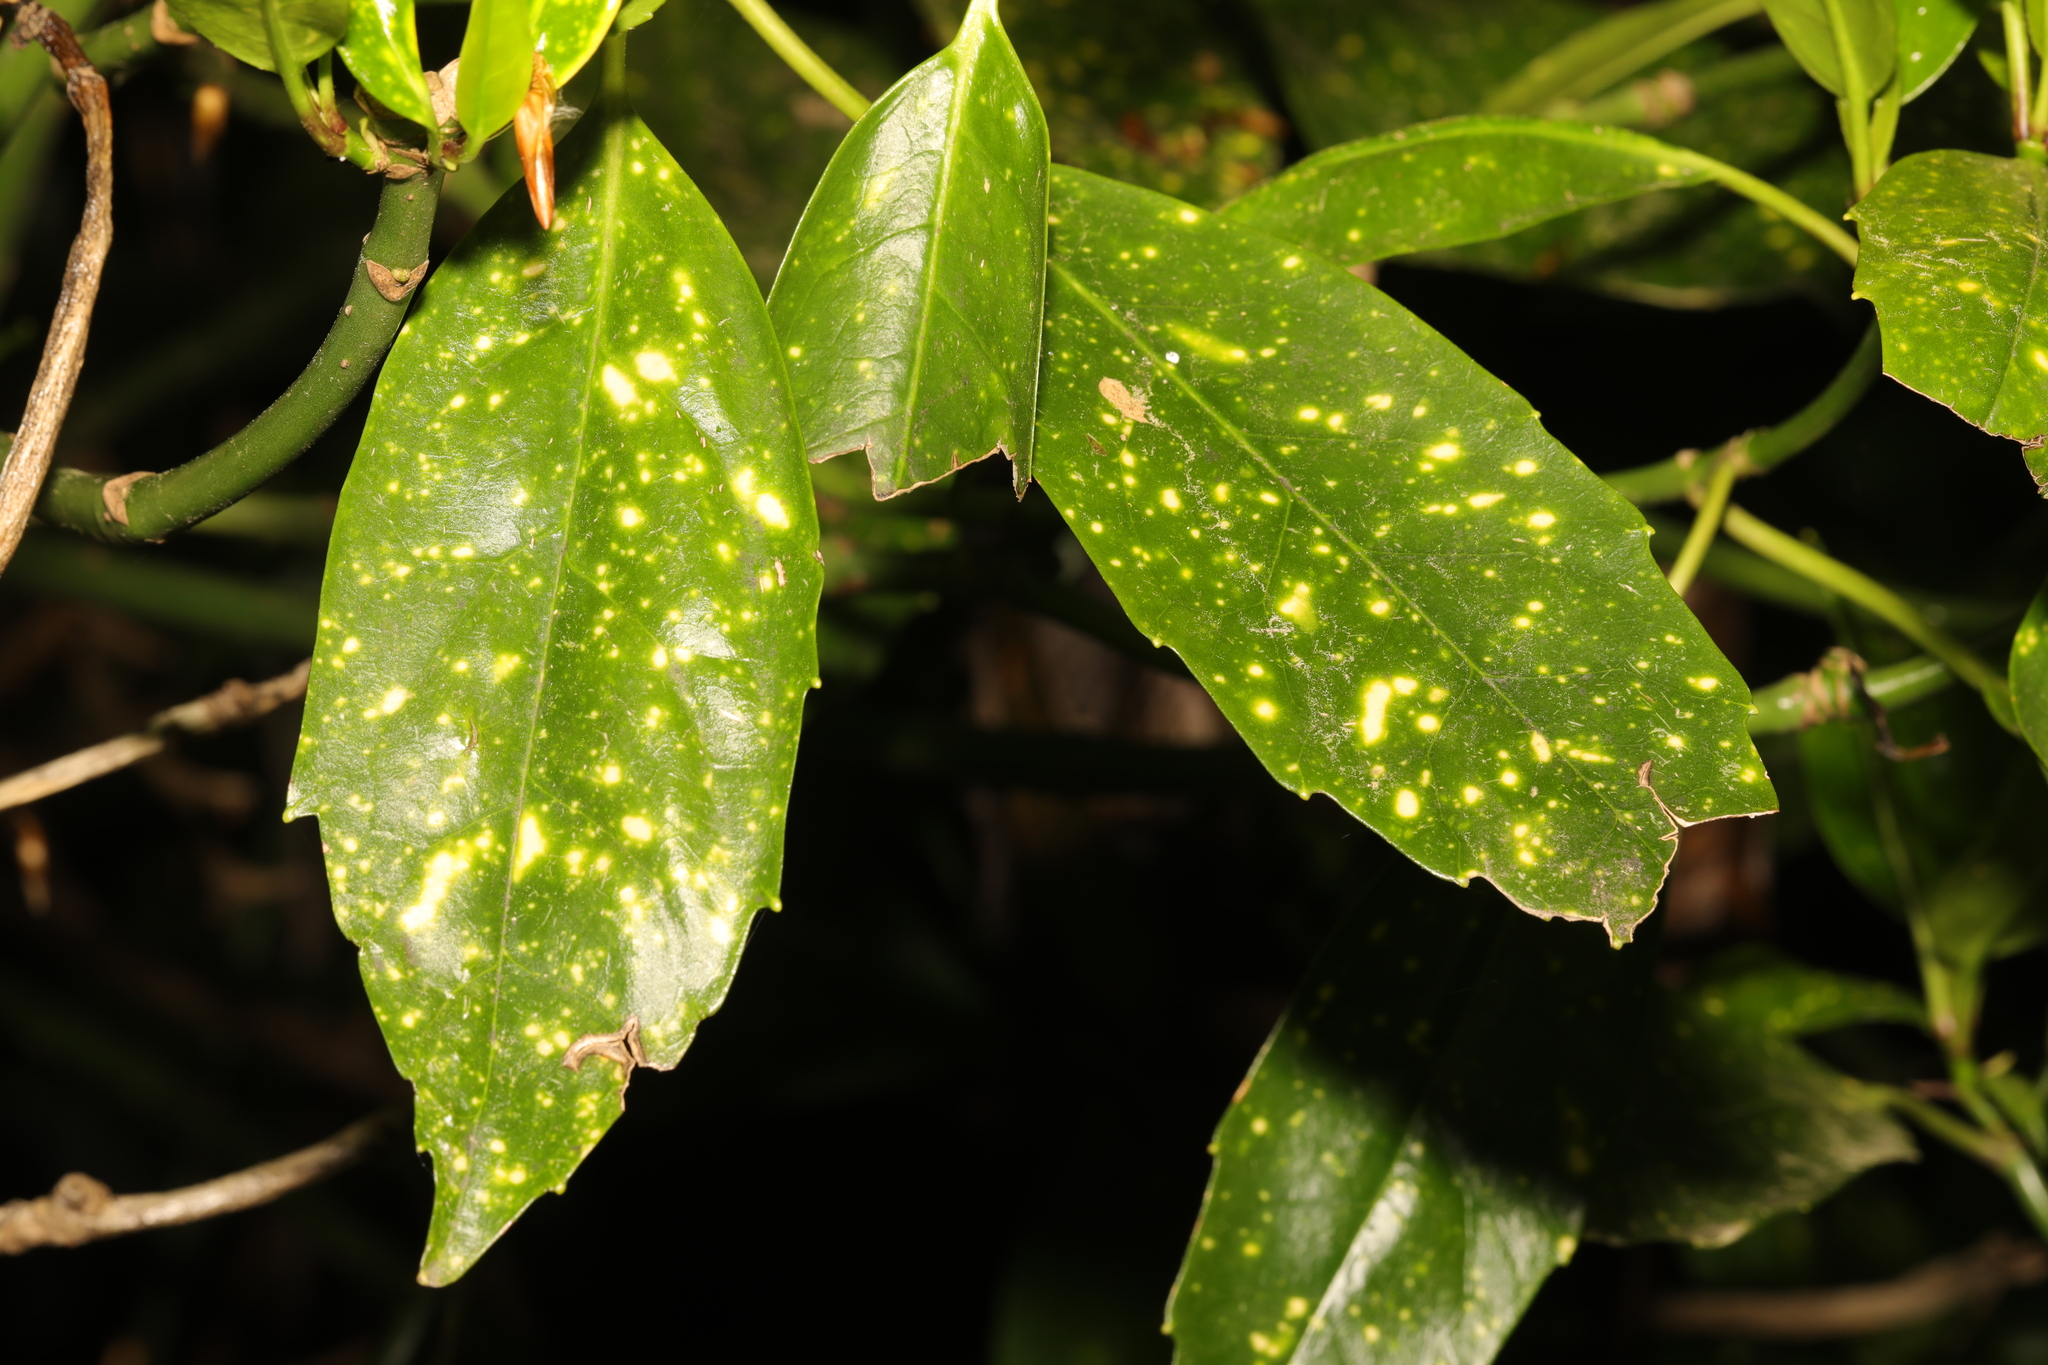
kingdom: Plantae
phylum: Tracheophyta
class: Magnoliopsida
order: Garryales
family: Garryaceae
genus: Aucuba
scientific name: Aucuba japonica
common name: Spotted-laurel
